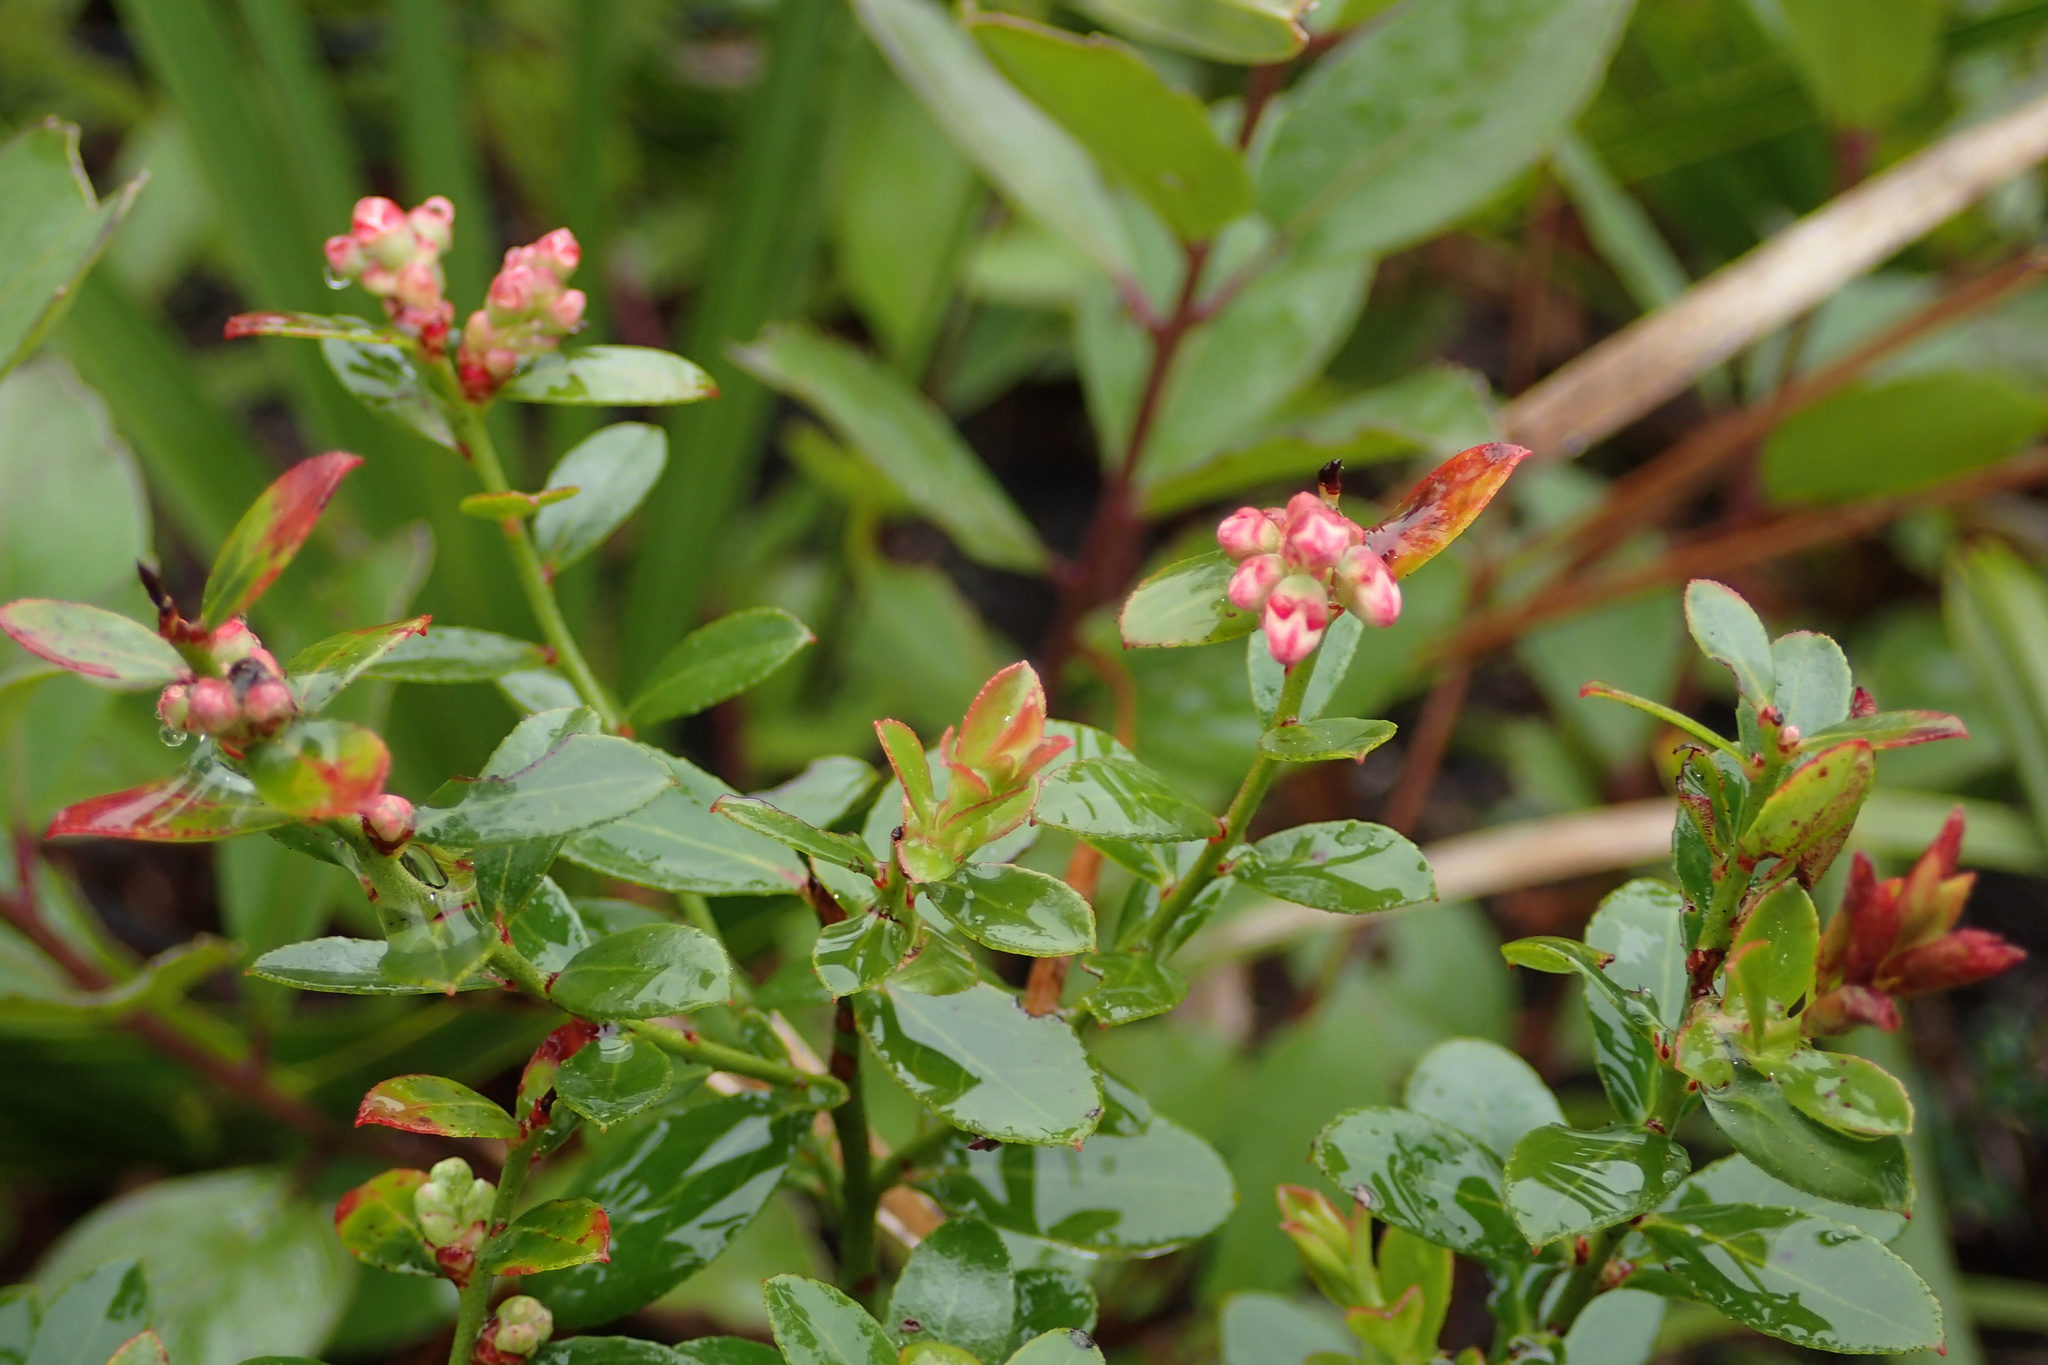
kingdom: Plantae
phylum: Tracheophyta
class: Magnoliopsida
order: Ericales
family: Ericaceae
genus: Vaccinium
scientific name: Vaccinium myrsinites
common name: Evergreen blueberry
